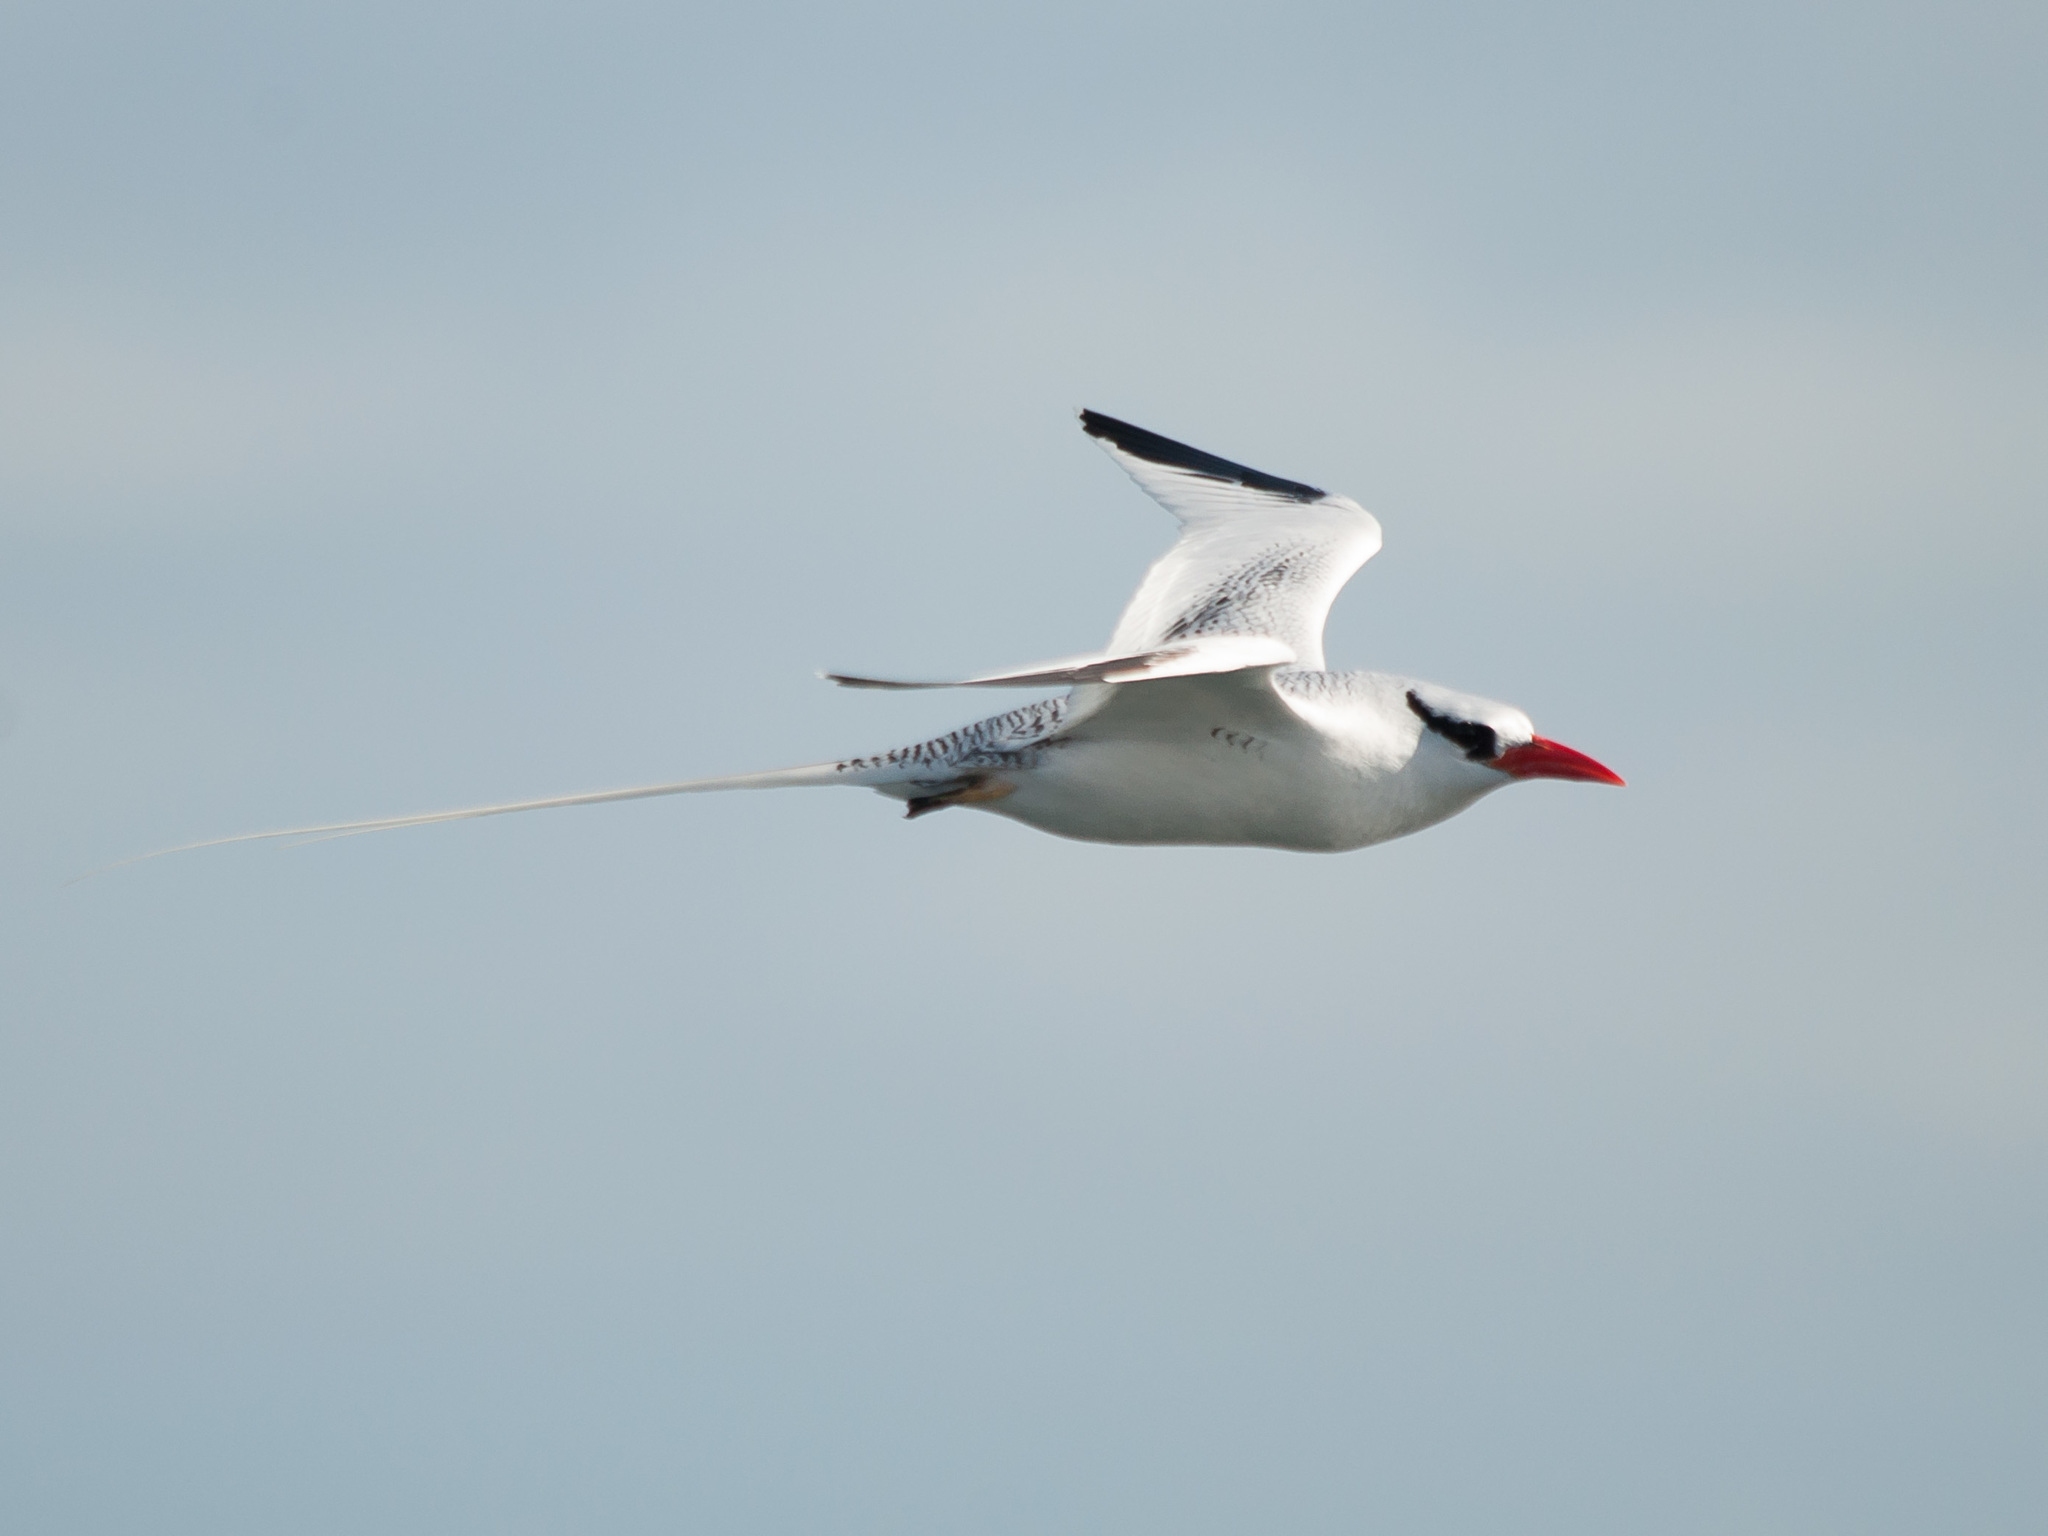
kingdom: Animalia
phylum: Chordata
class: Aves
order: Phaethontiformes
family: Phaethontidae
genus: Phaethon
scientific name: Phaethon aethereus
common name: Red-billed tropicbird
